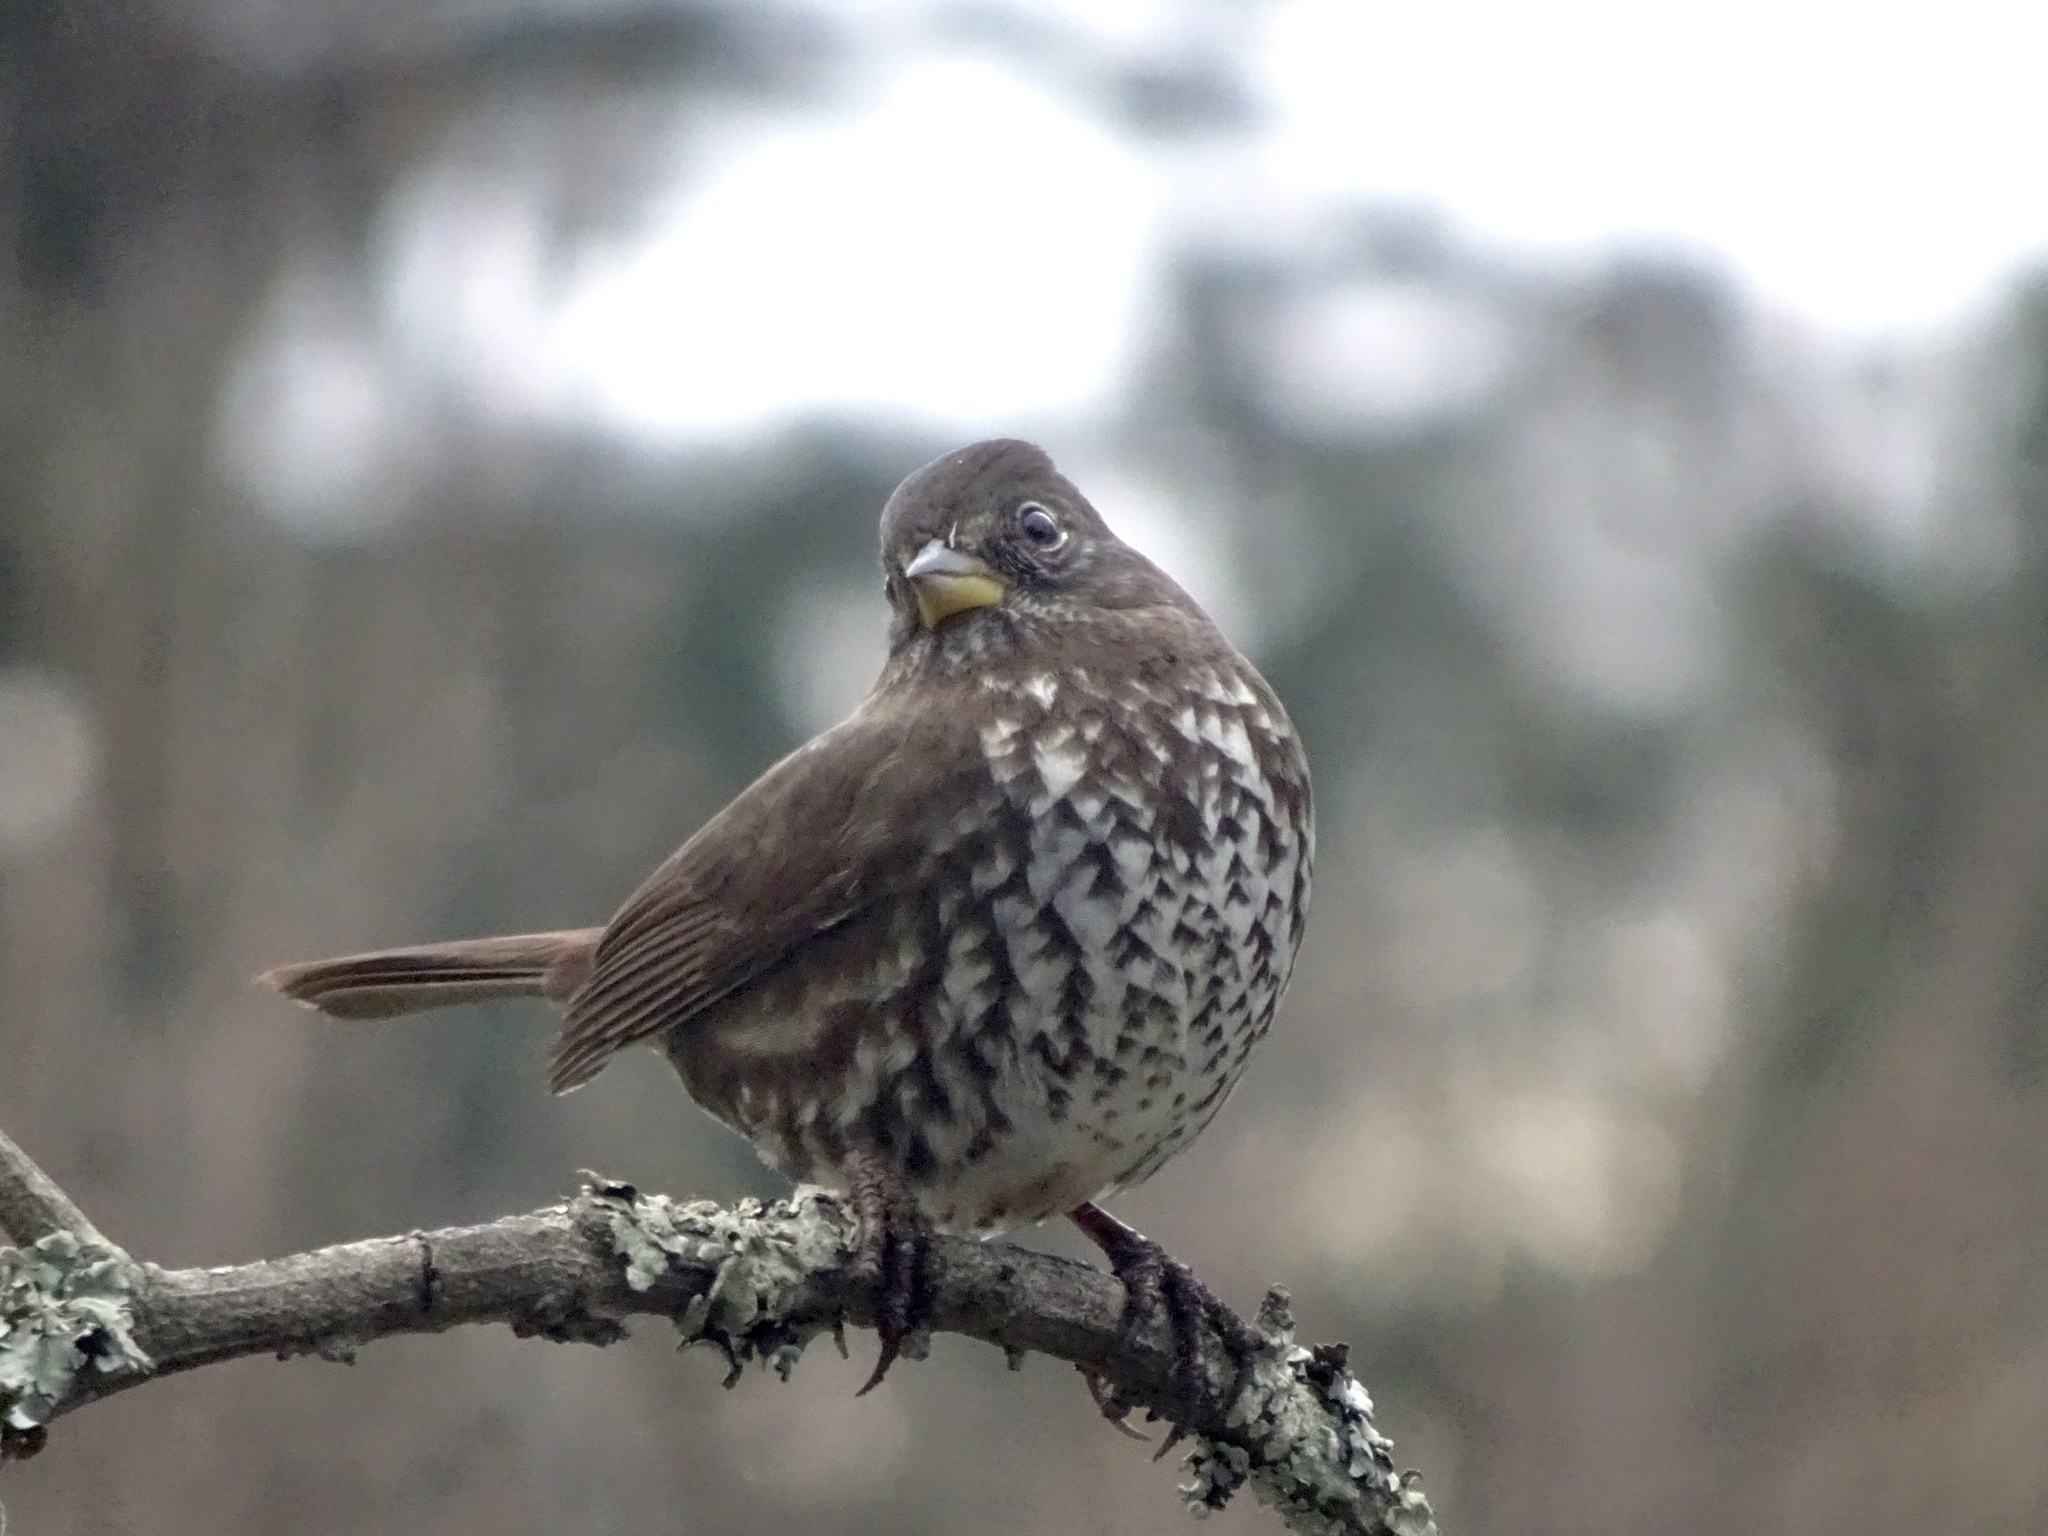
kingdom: Animalia
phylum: Chordata
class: Aves
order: Passeriformes
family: Passerellidae
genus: Passerella
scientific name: Passerella iliaca
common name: Fox sparrow
